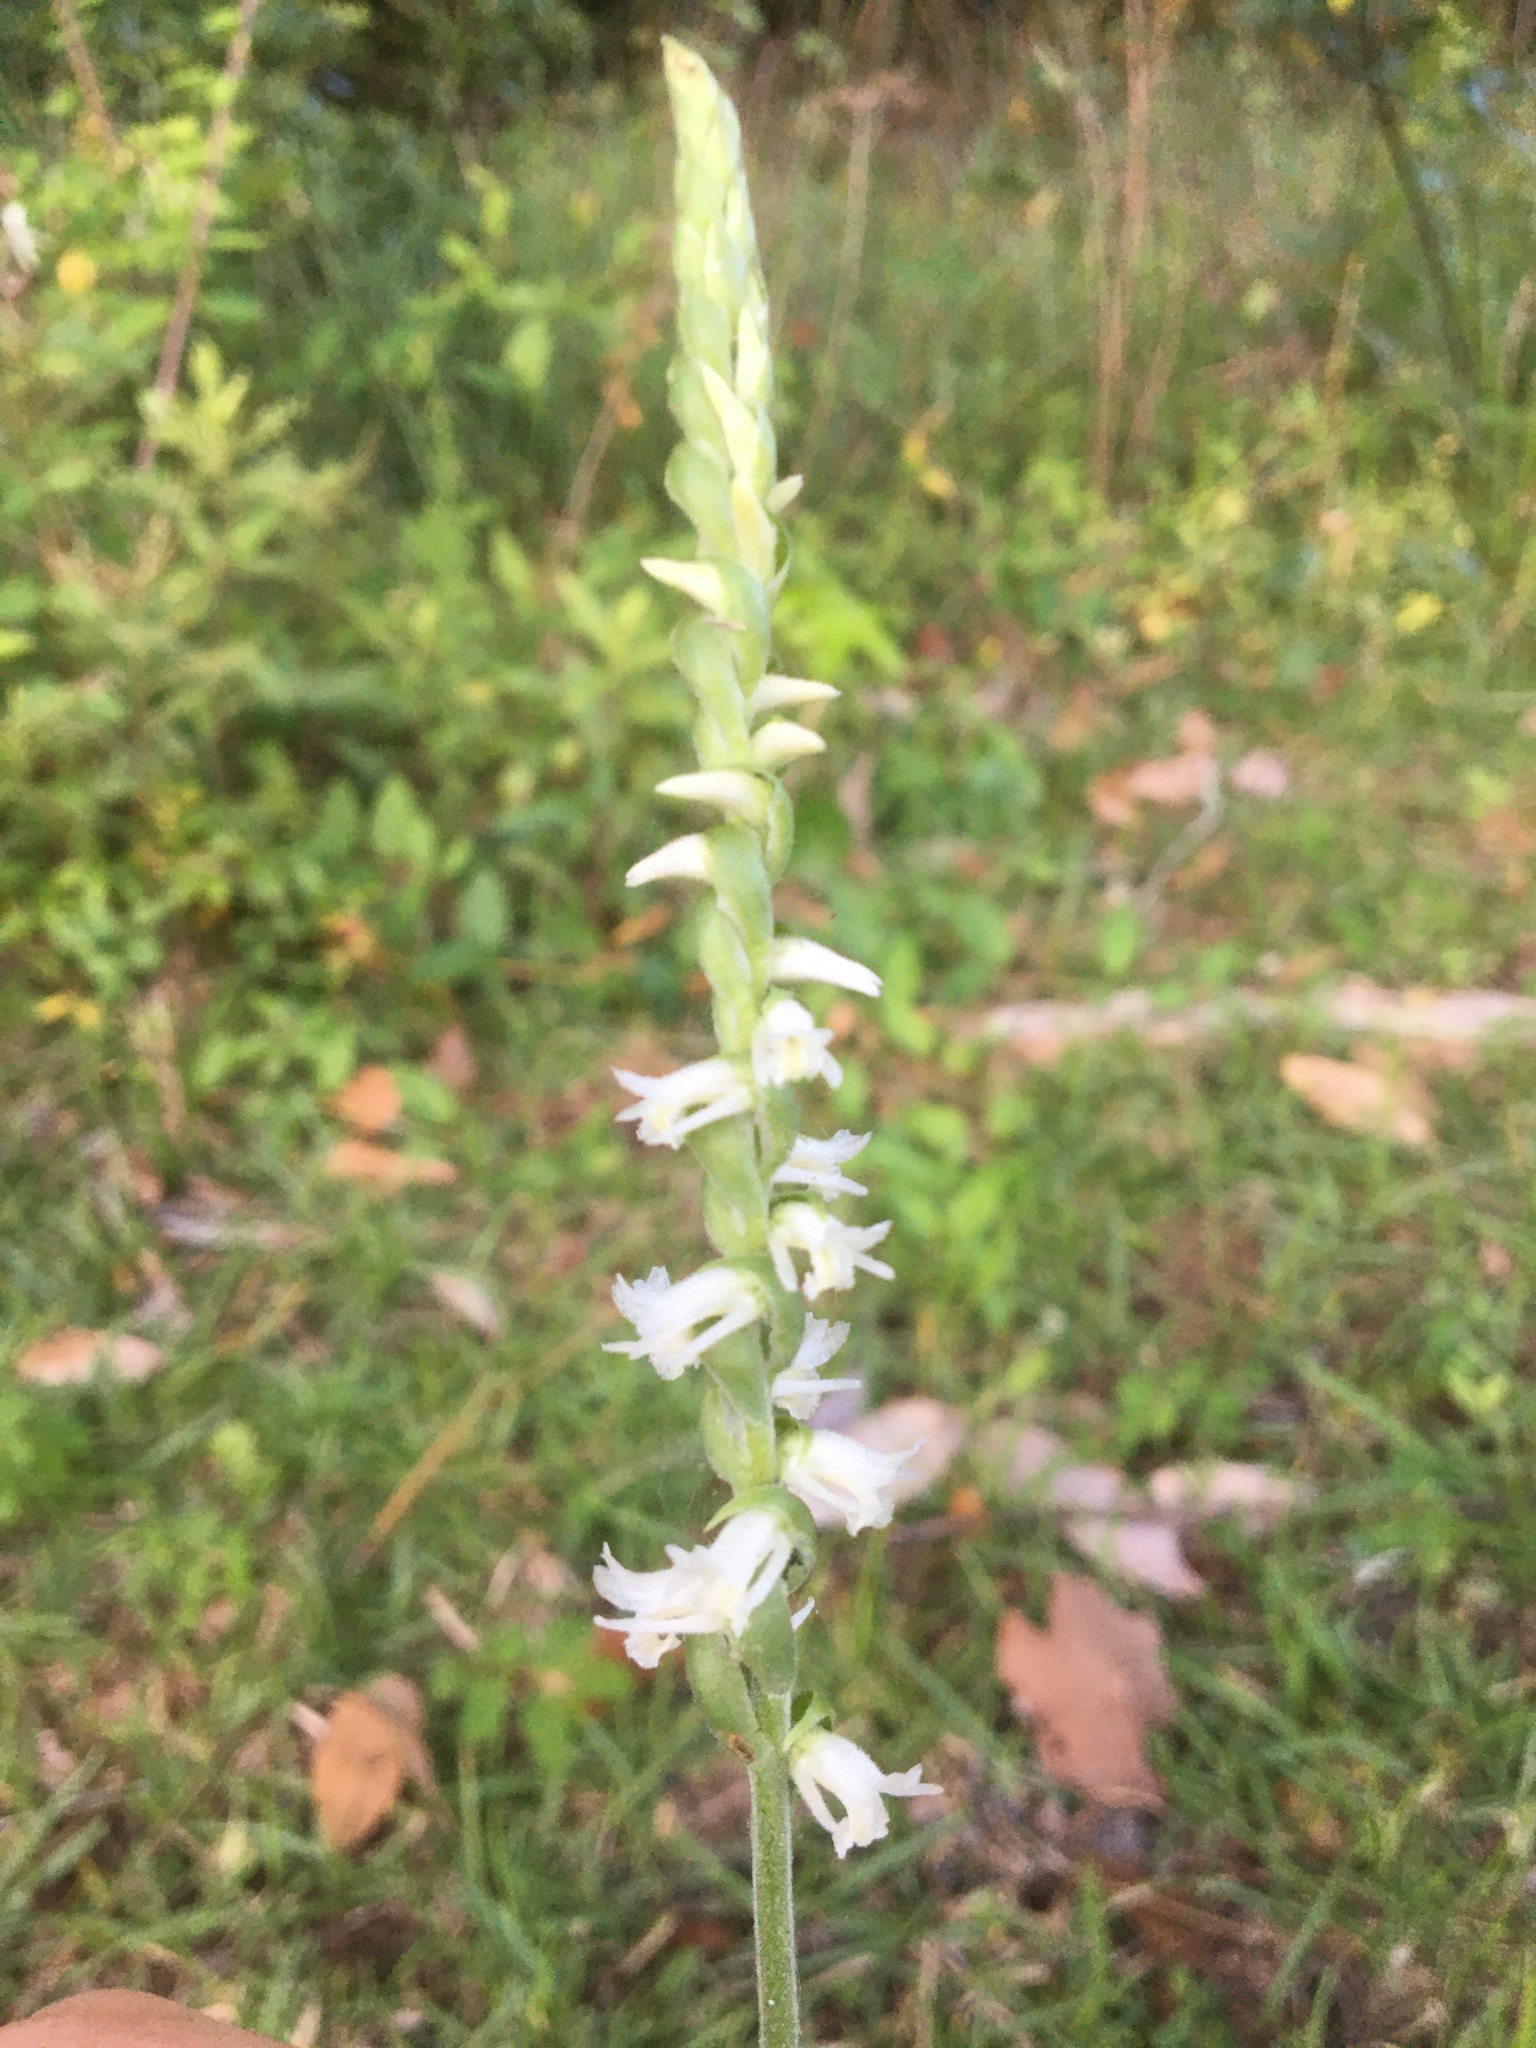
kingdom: Plantae
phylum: Tracheophyta
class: Liliopsida
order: Asparagales
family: Orchidaceae
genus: Spiranthes
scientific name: Spiranthes vernalis
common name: Spring ladies'-tresses
